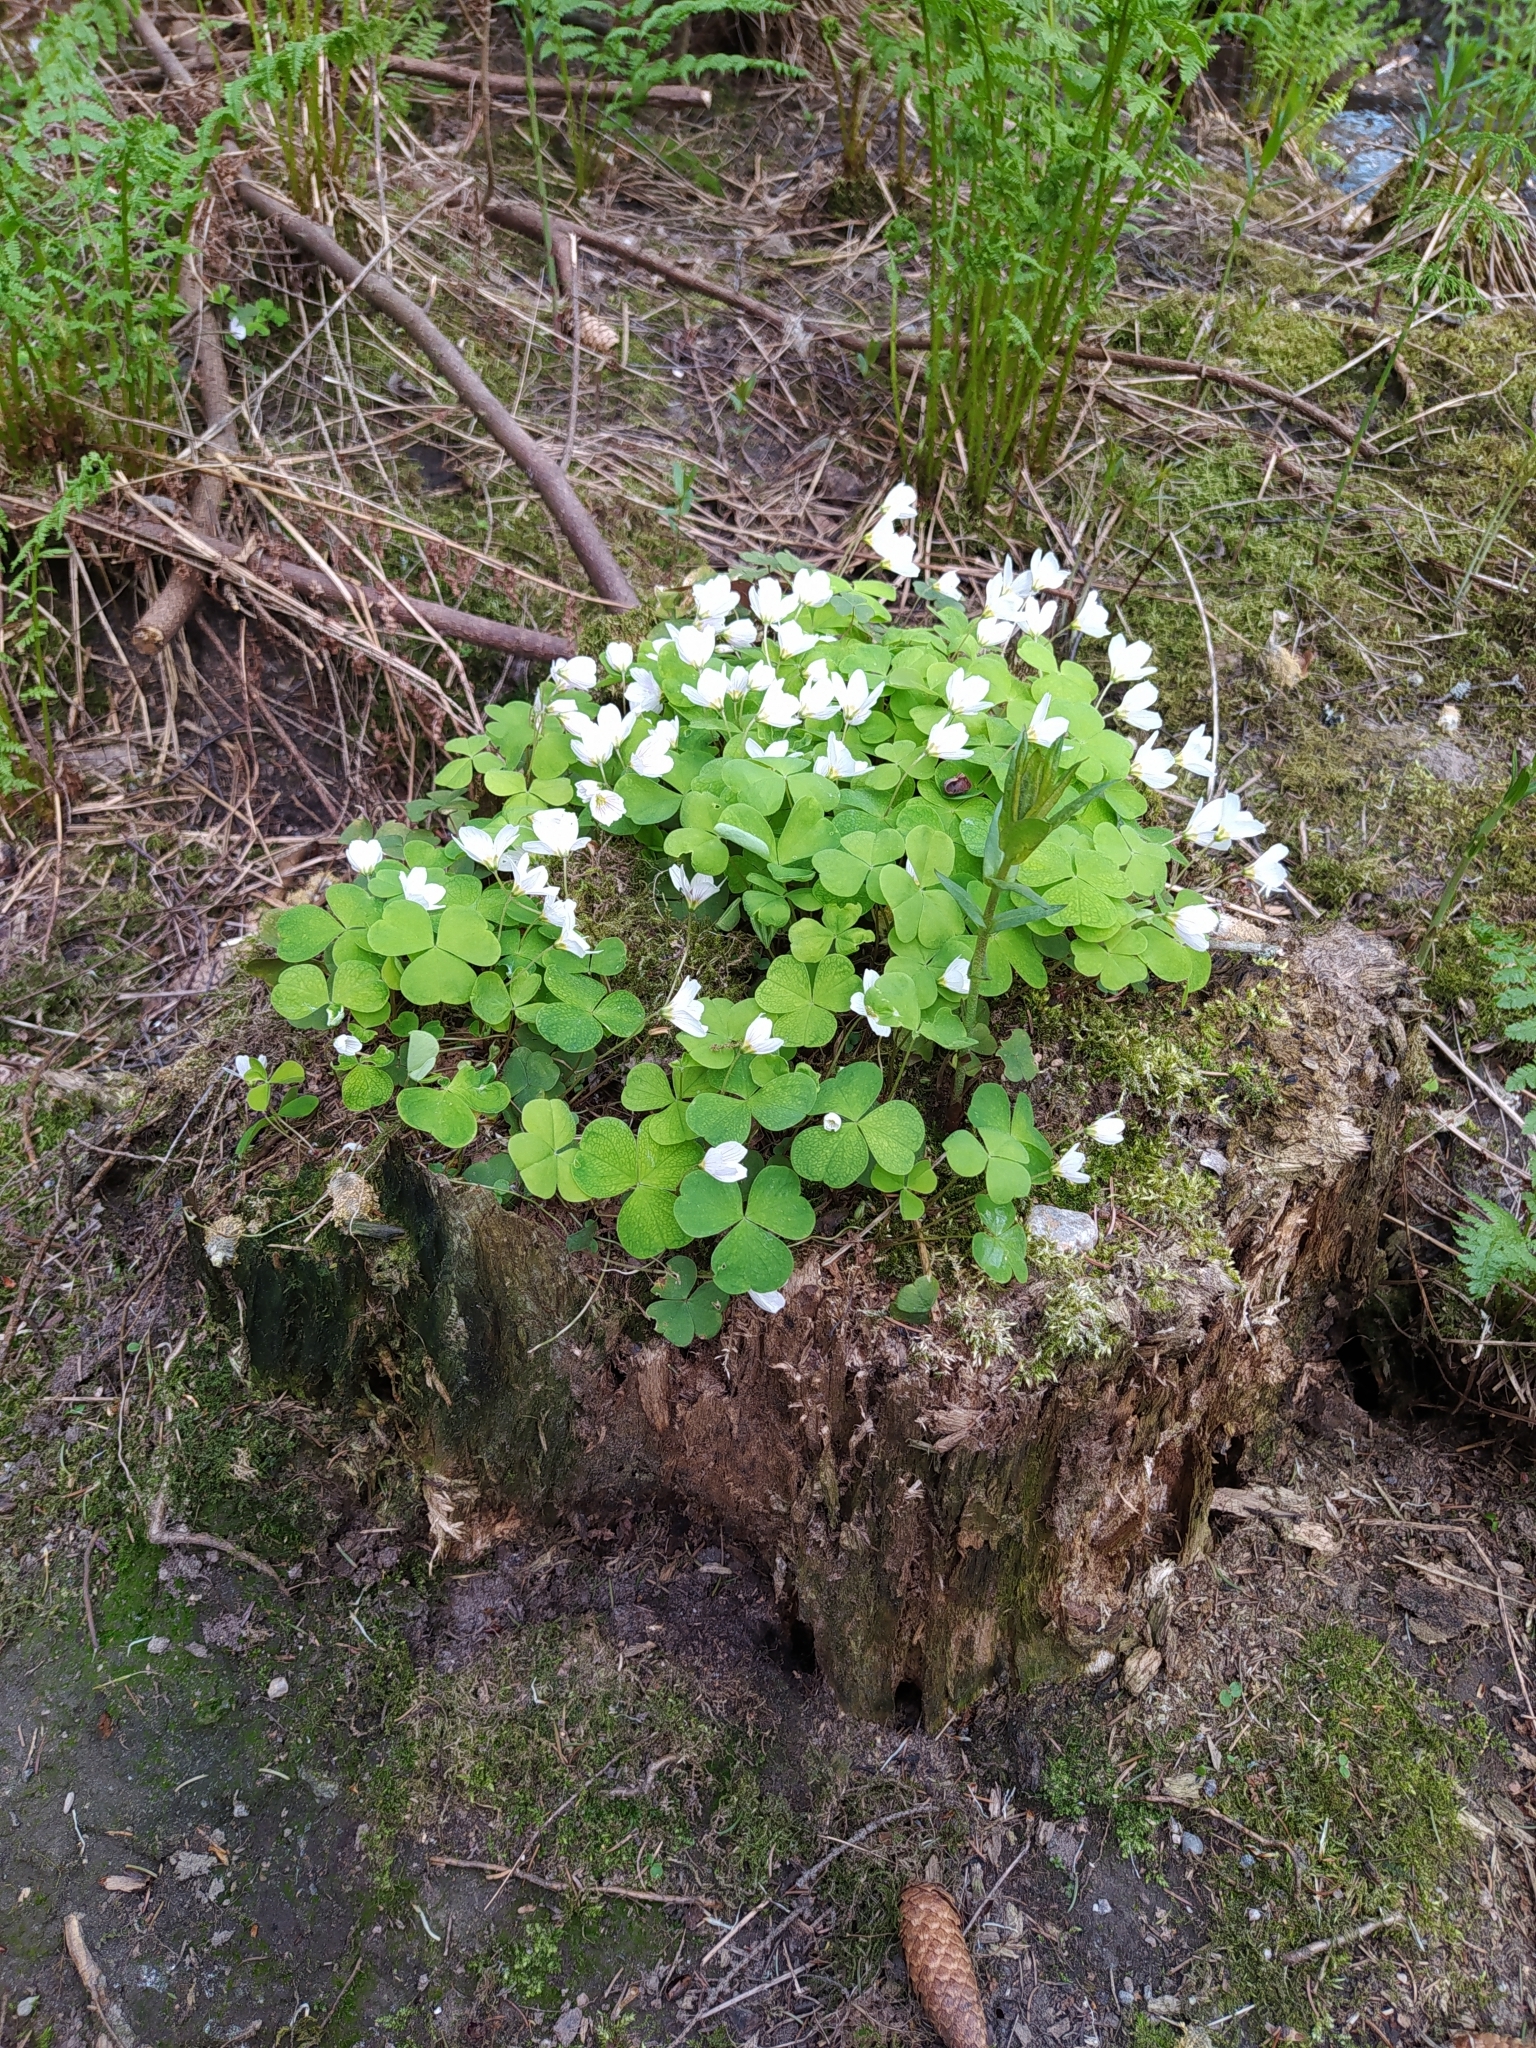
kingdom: Plantae
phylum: Tracheophyta
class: Magnoliopsida
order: Oxalidales
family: Oxalidaceae
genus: Oxalis
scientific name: Oxalis acetosella
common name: Wood-sorrel
